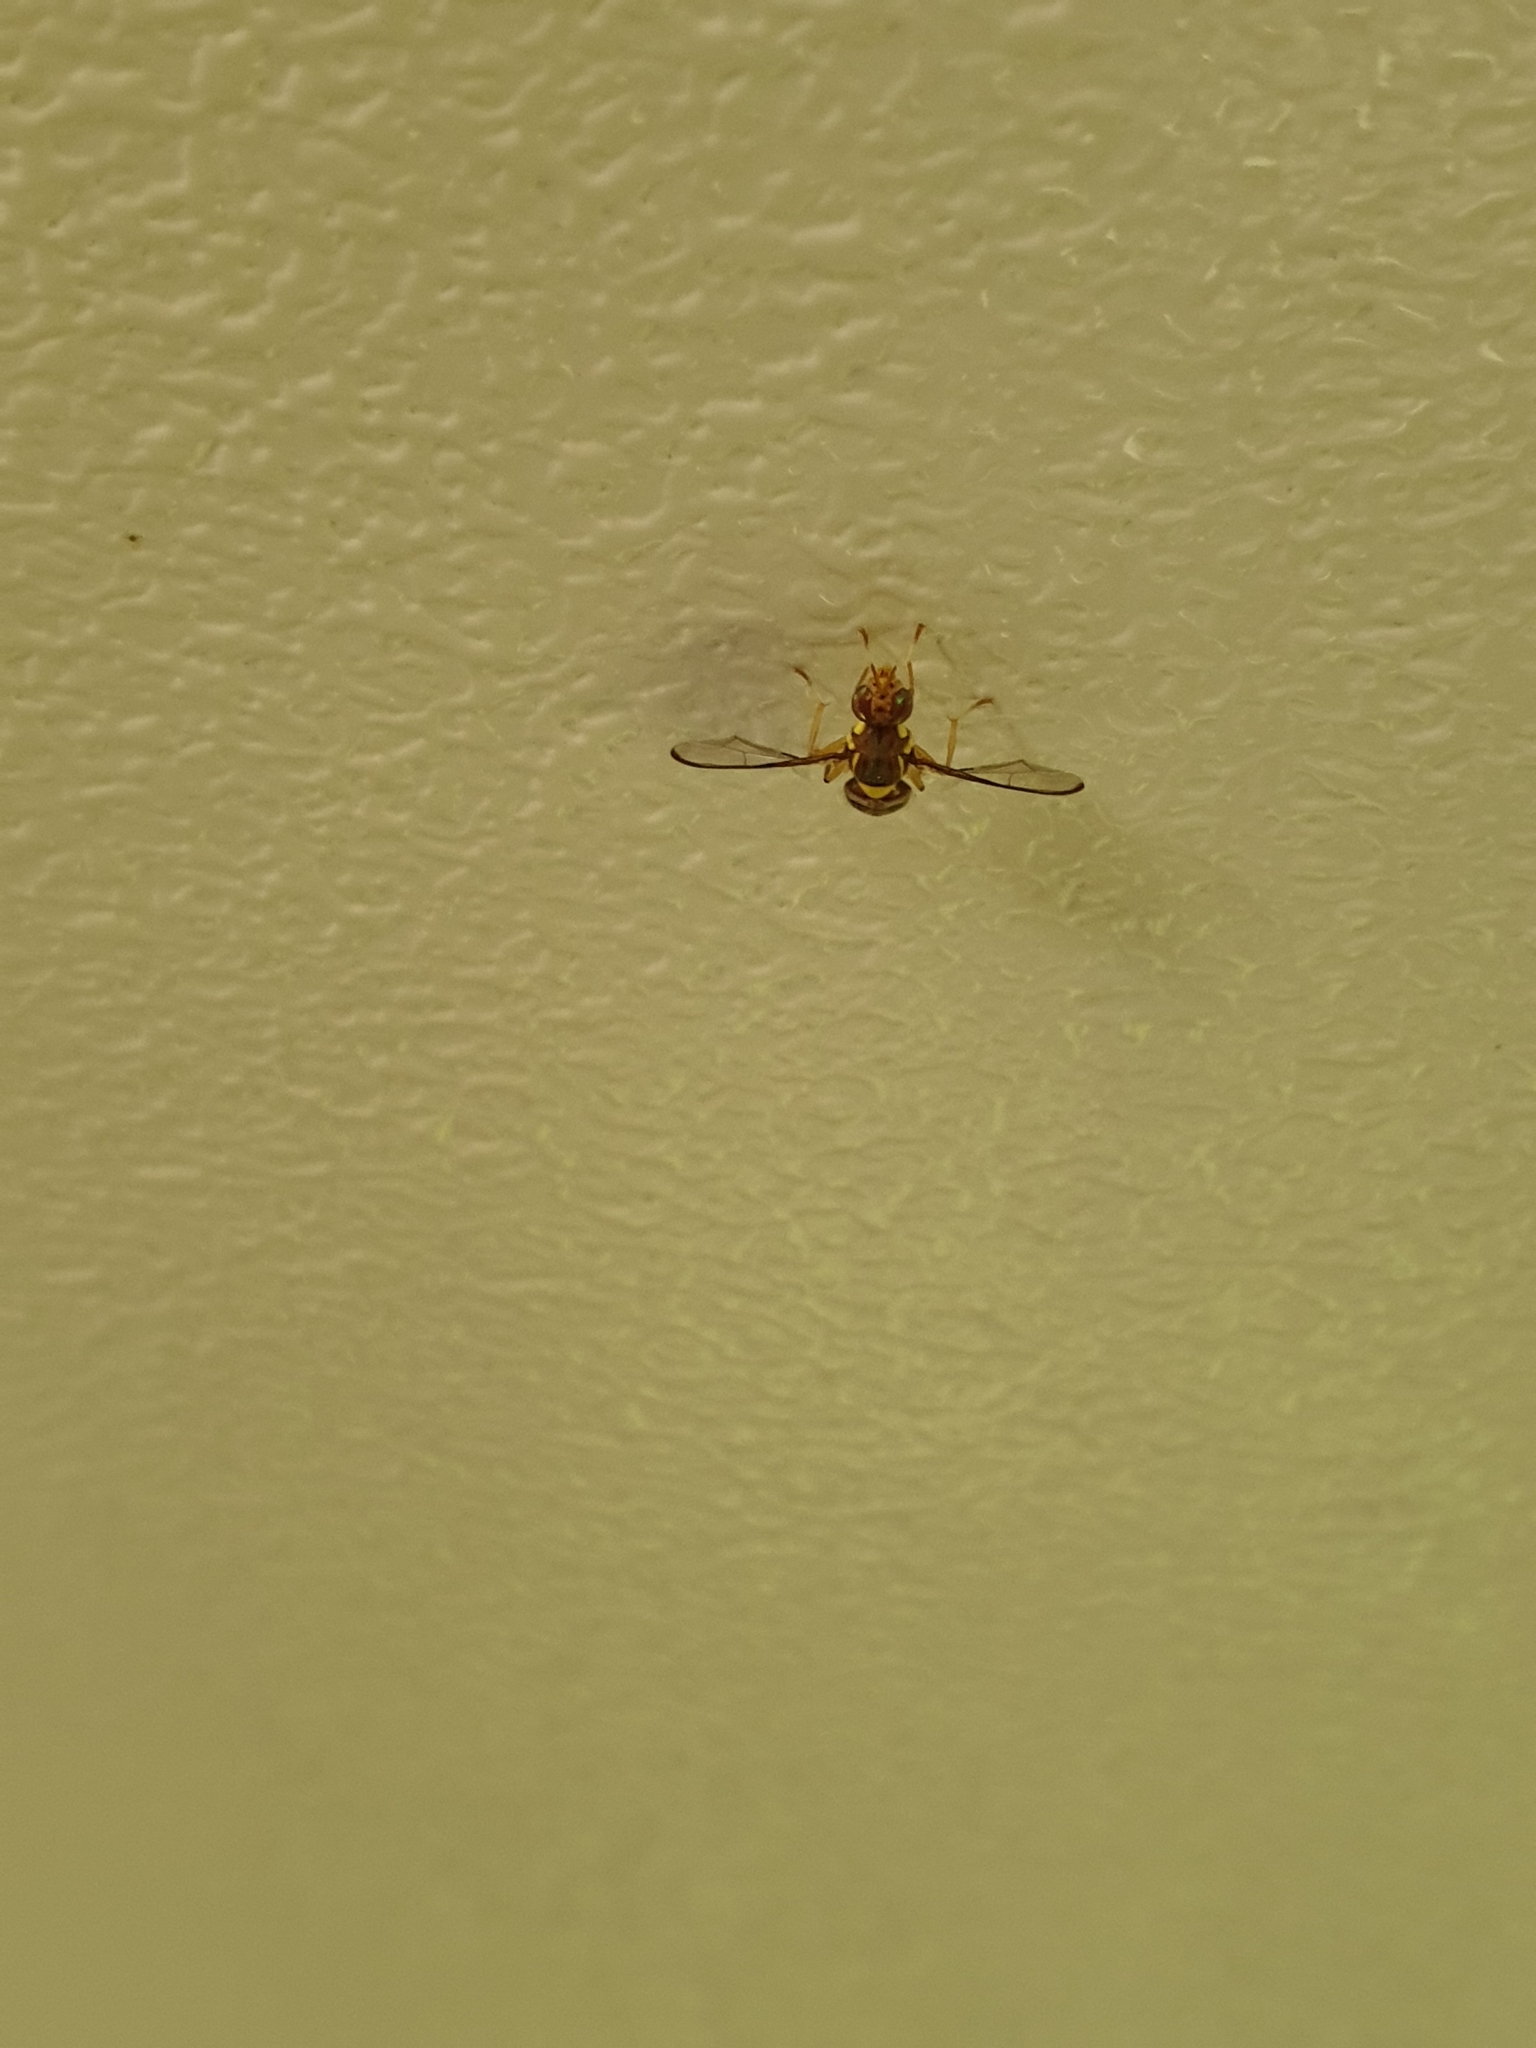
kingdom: Animalia
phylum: Arthropoda
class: Insecta
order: Diptera
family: Tephritidae
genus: Bactrocera
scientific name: Bactrocera cacuminata
